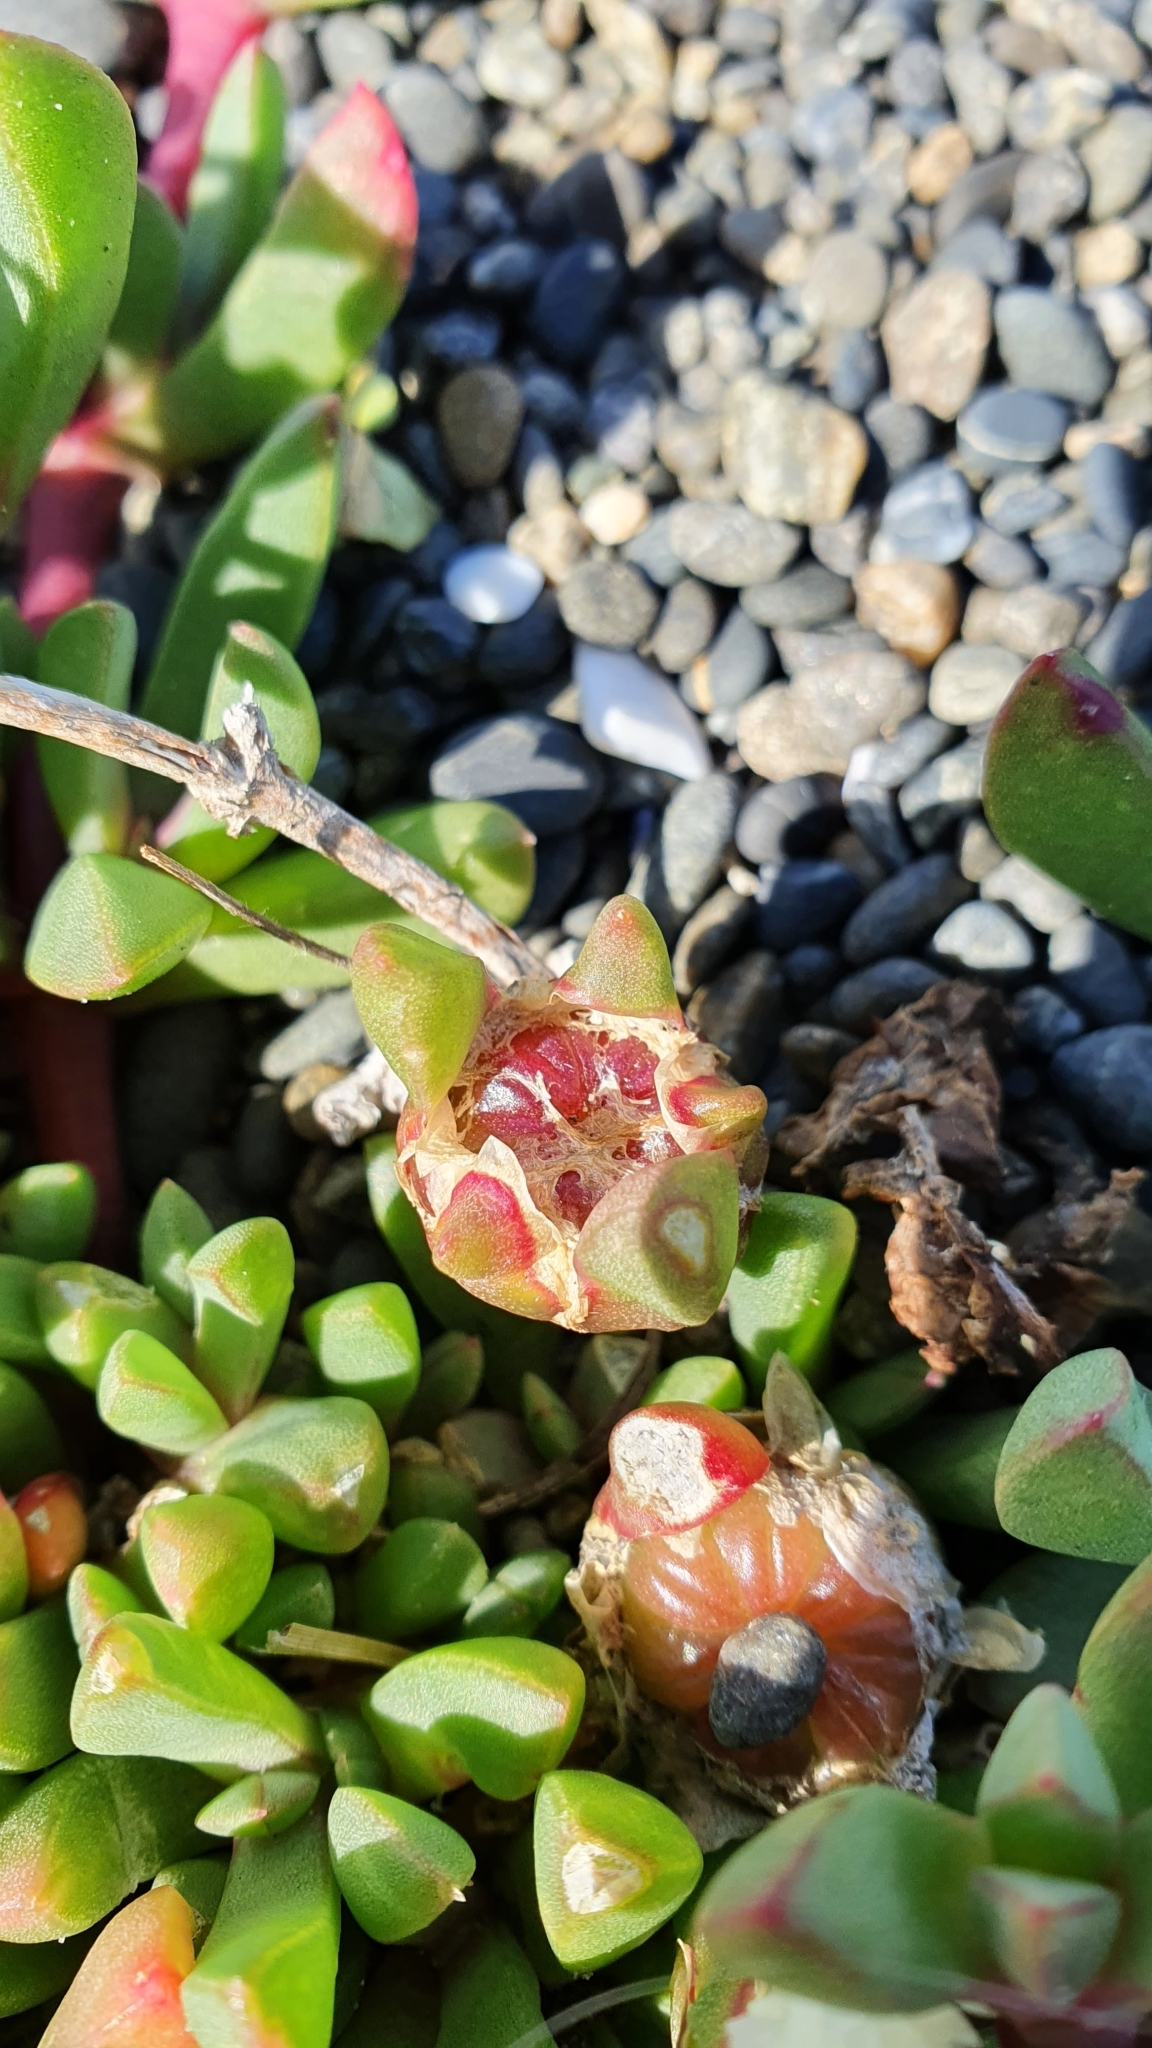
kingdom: Plantae
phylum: Tracheophyta
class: Magnoliopsida
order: Caryophyllales
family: Aizoaceae
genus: Disphyma
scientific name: Disphyma australe
